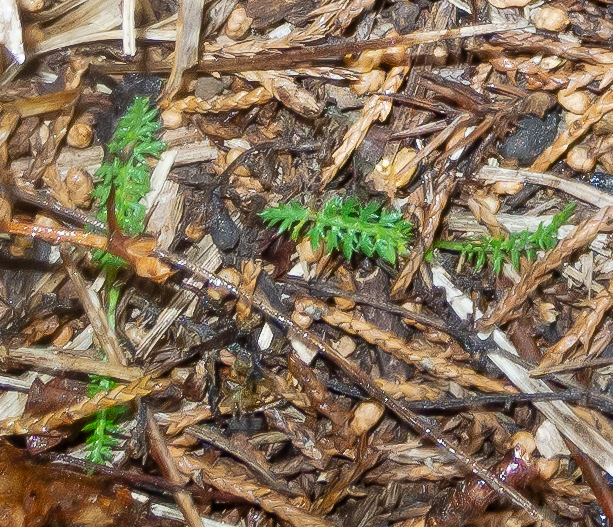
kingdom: Plantae
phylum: Tracheophyta
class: Magnoliopsida
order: Asterales
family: Asteraceae
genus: Achillea
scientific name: Achillea millefolium
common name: Yarrow
